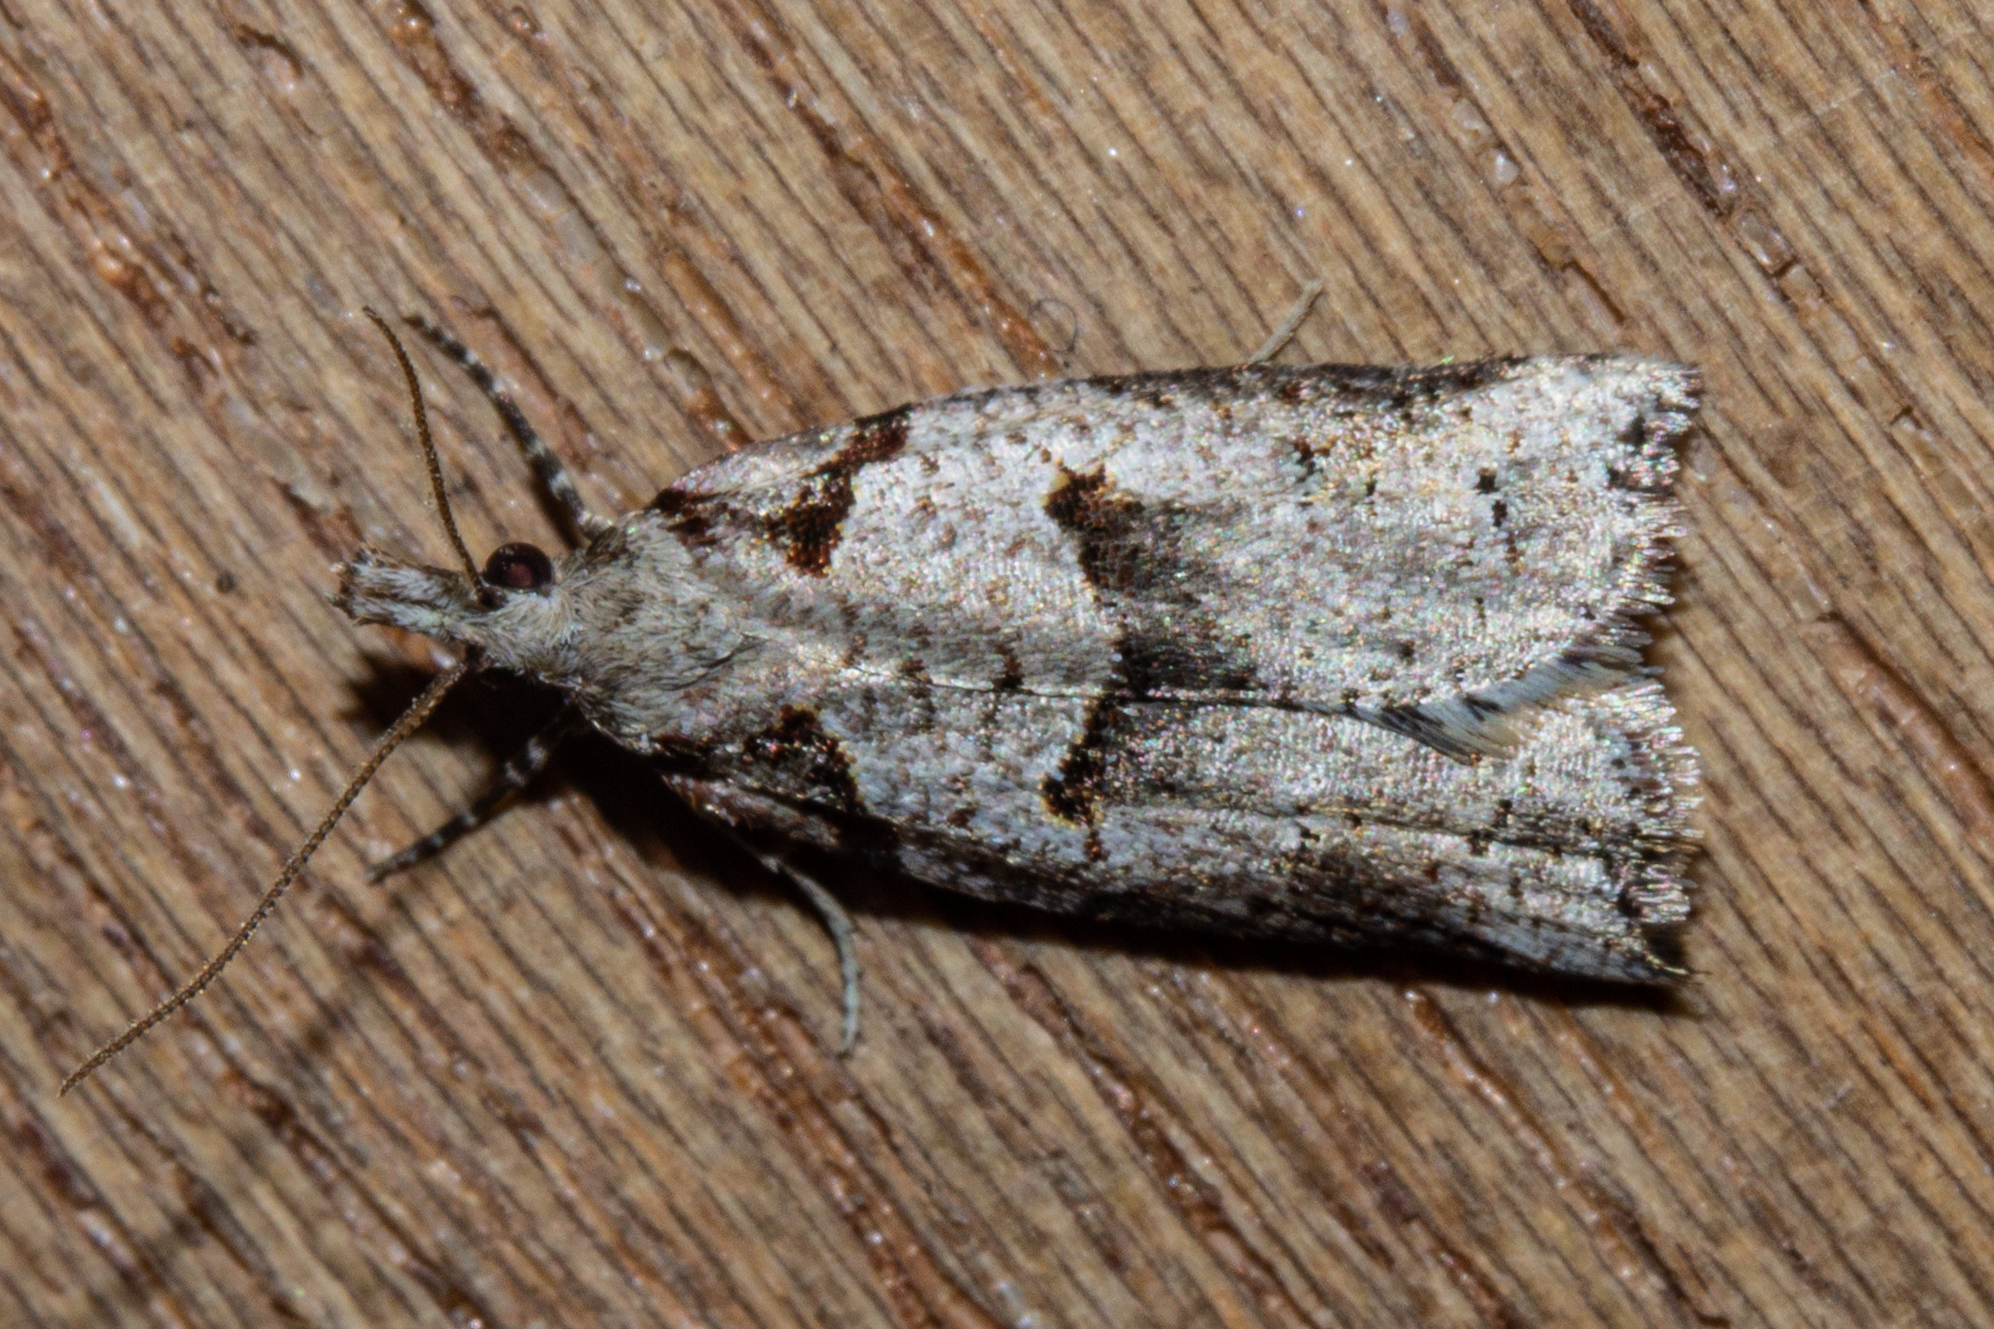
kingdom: Animalia
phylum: Arthropoda
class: Insecta
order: Lepidoptera
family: Tortricidae
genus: Harmologa
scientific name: Harmologa amplexana
